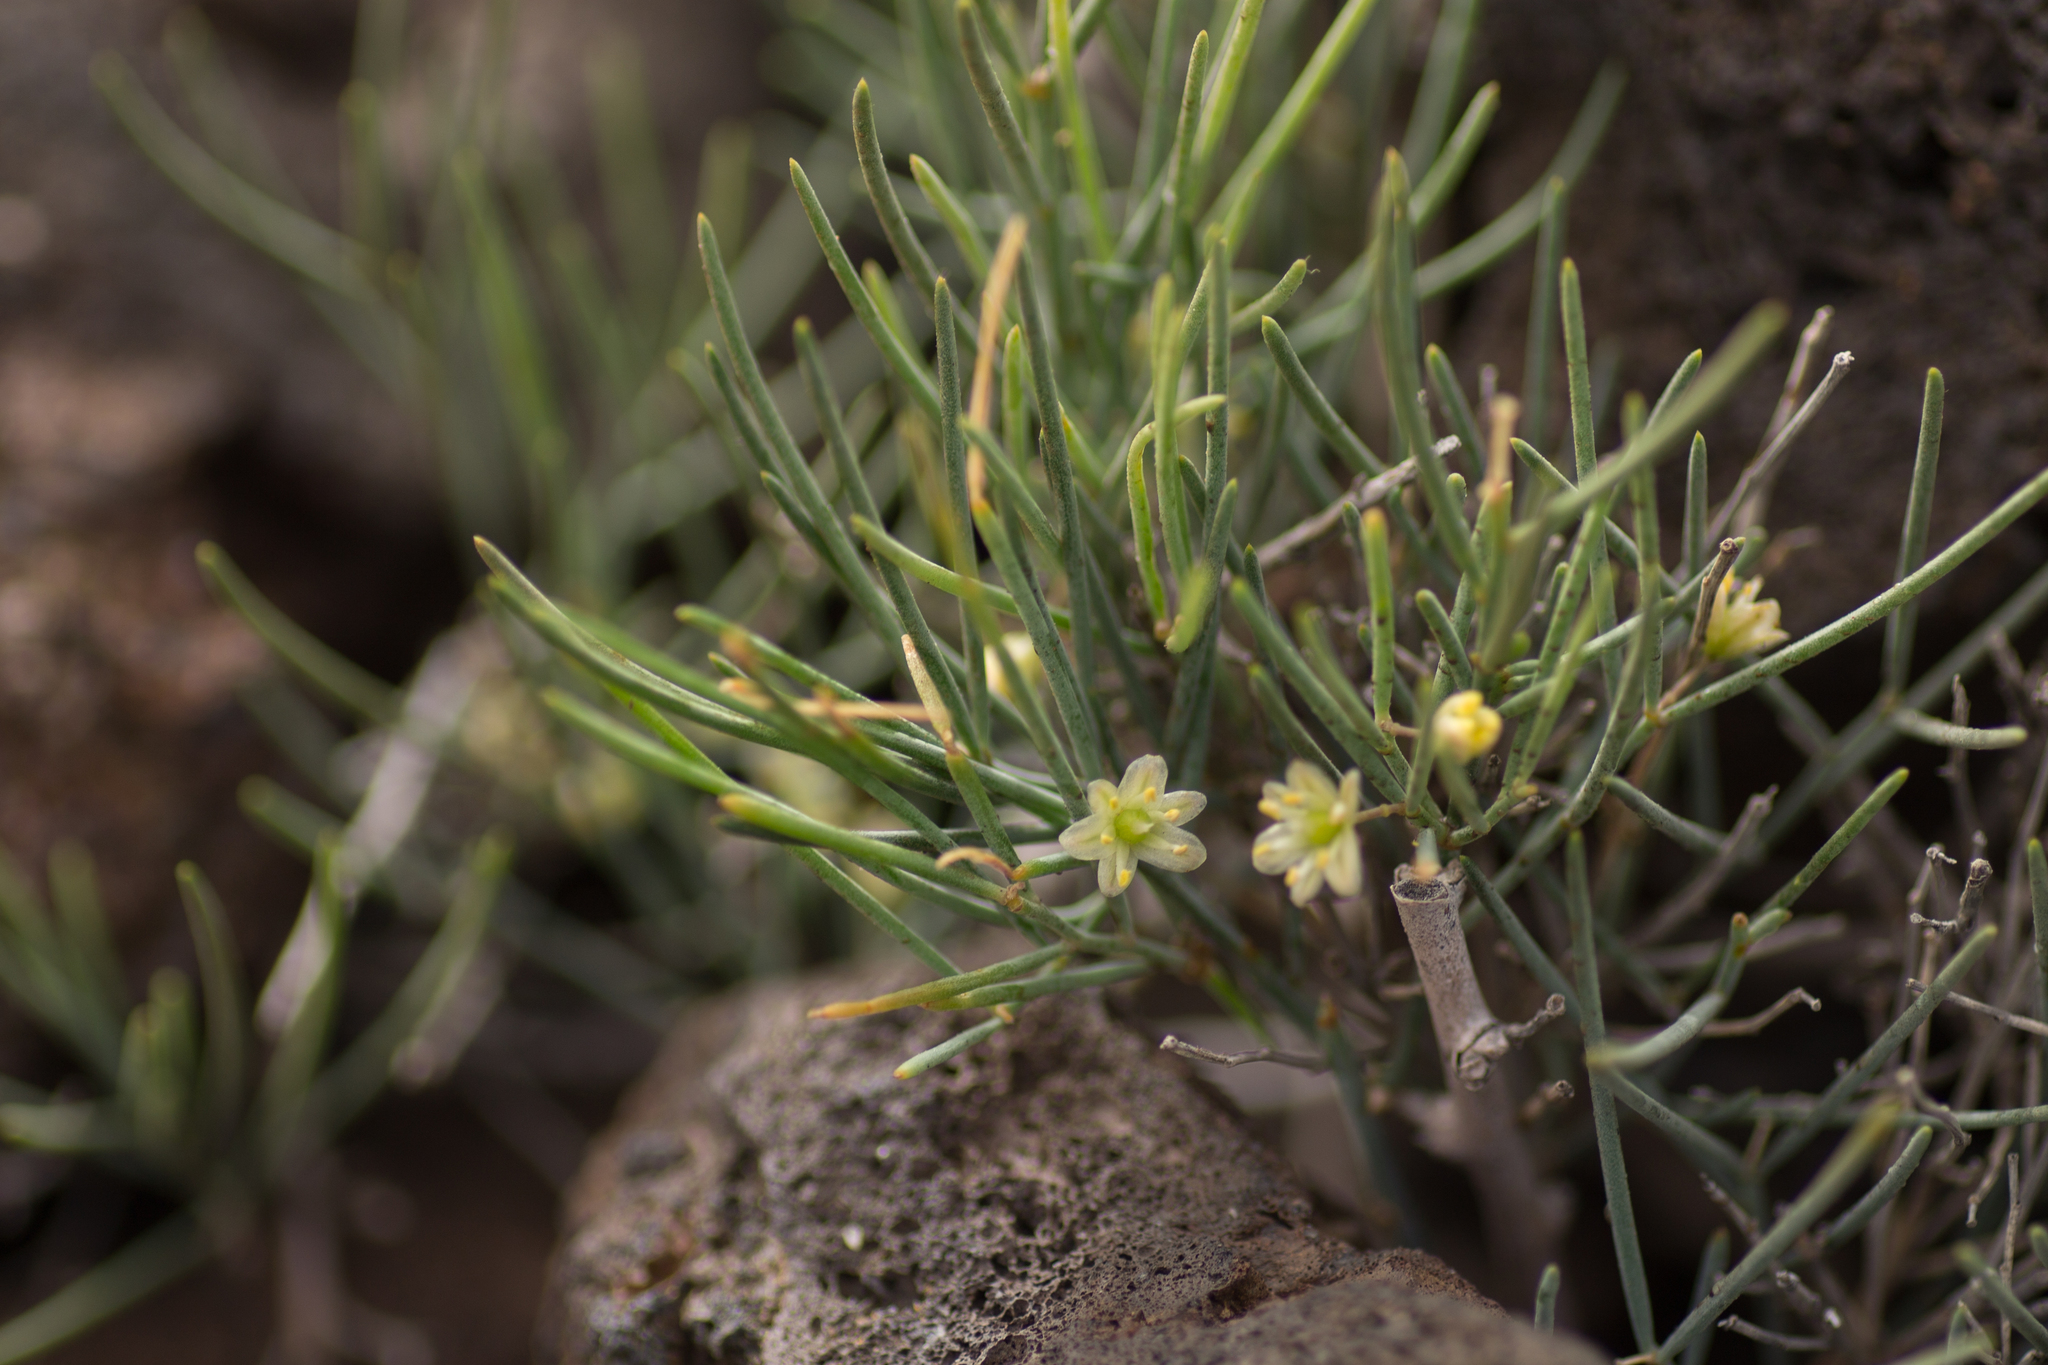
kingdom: Plantae
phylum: Tracheophyta
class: Liliopsida
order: Asparagales
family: Asparagaceae
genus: Asparagus
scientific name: Asparagus arborescens
